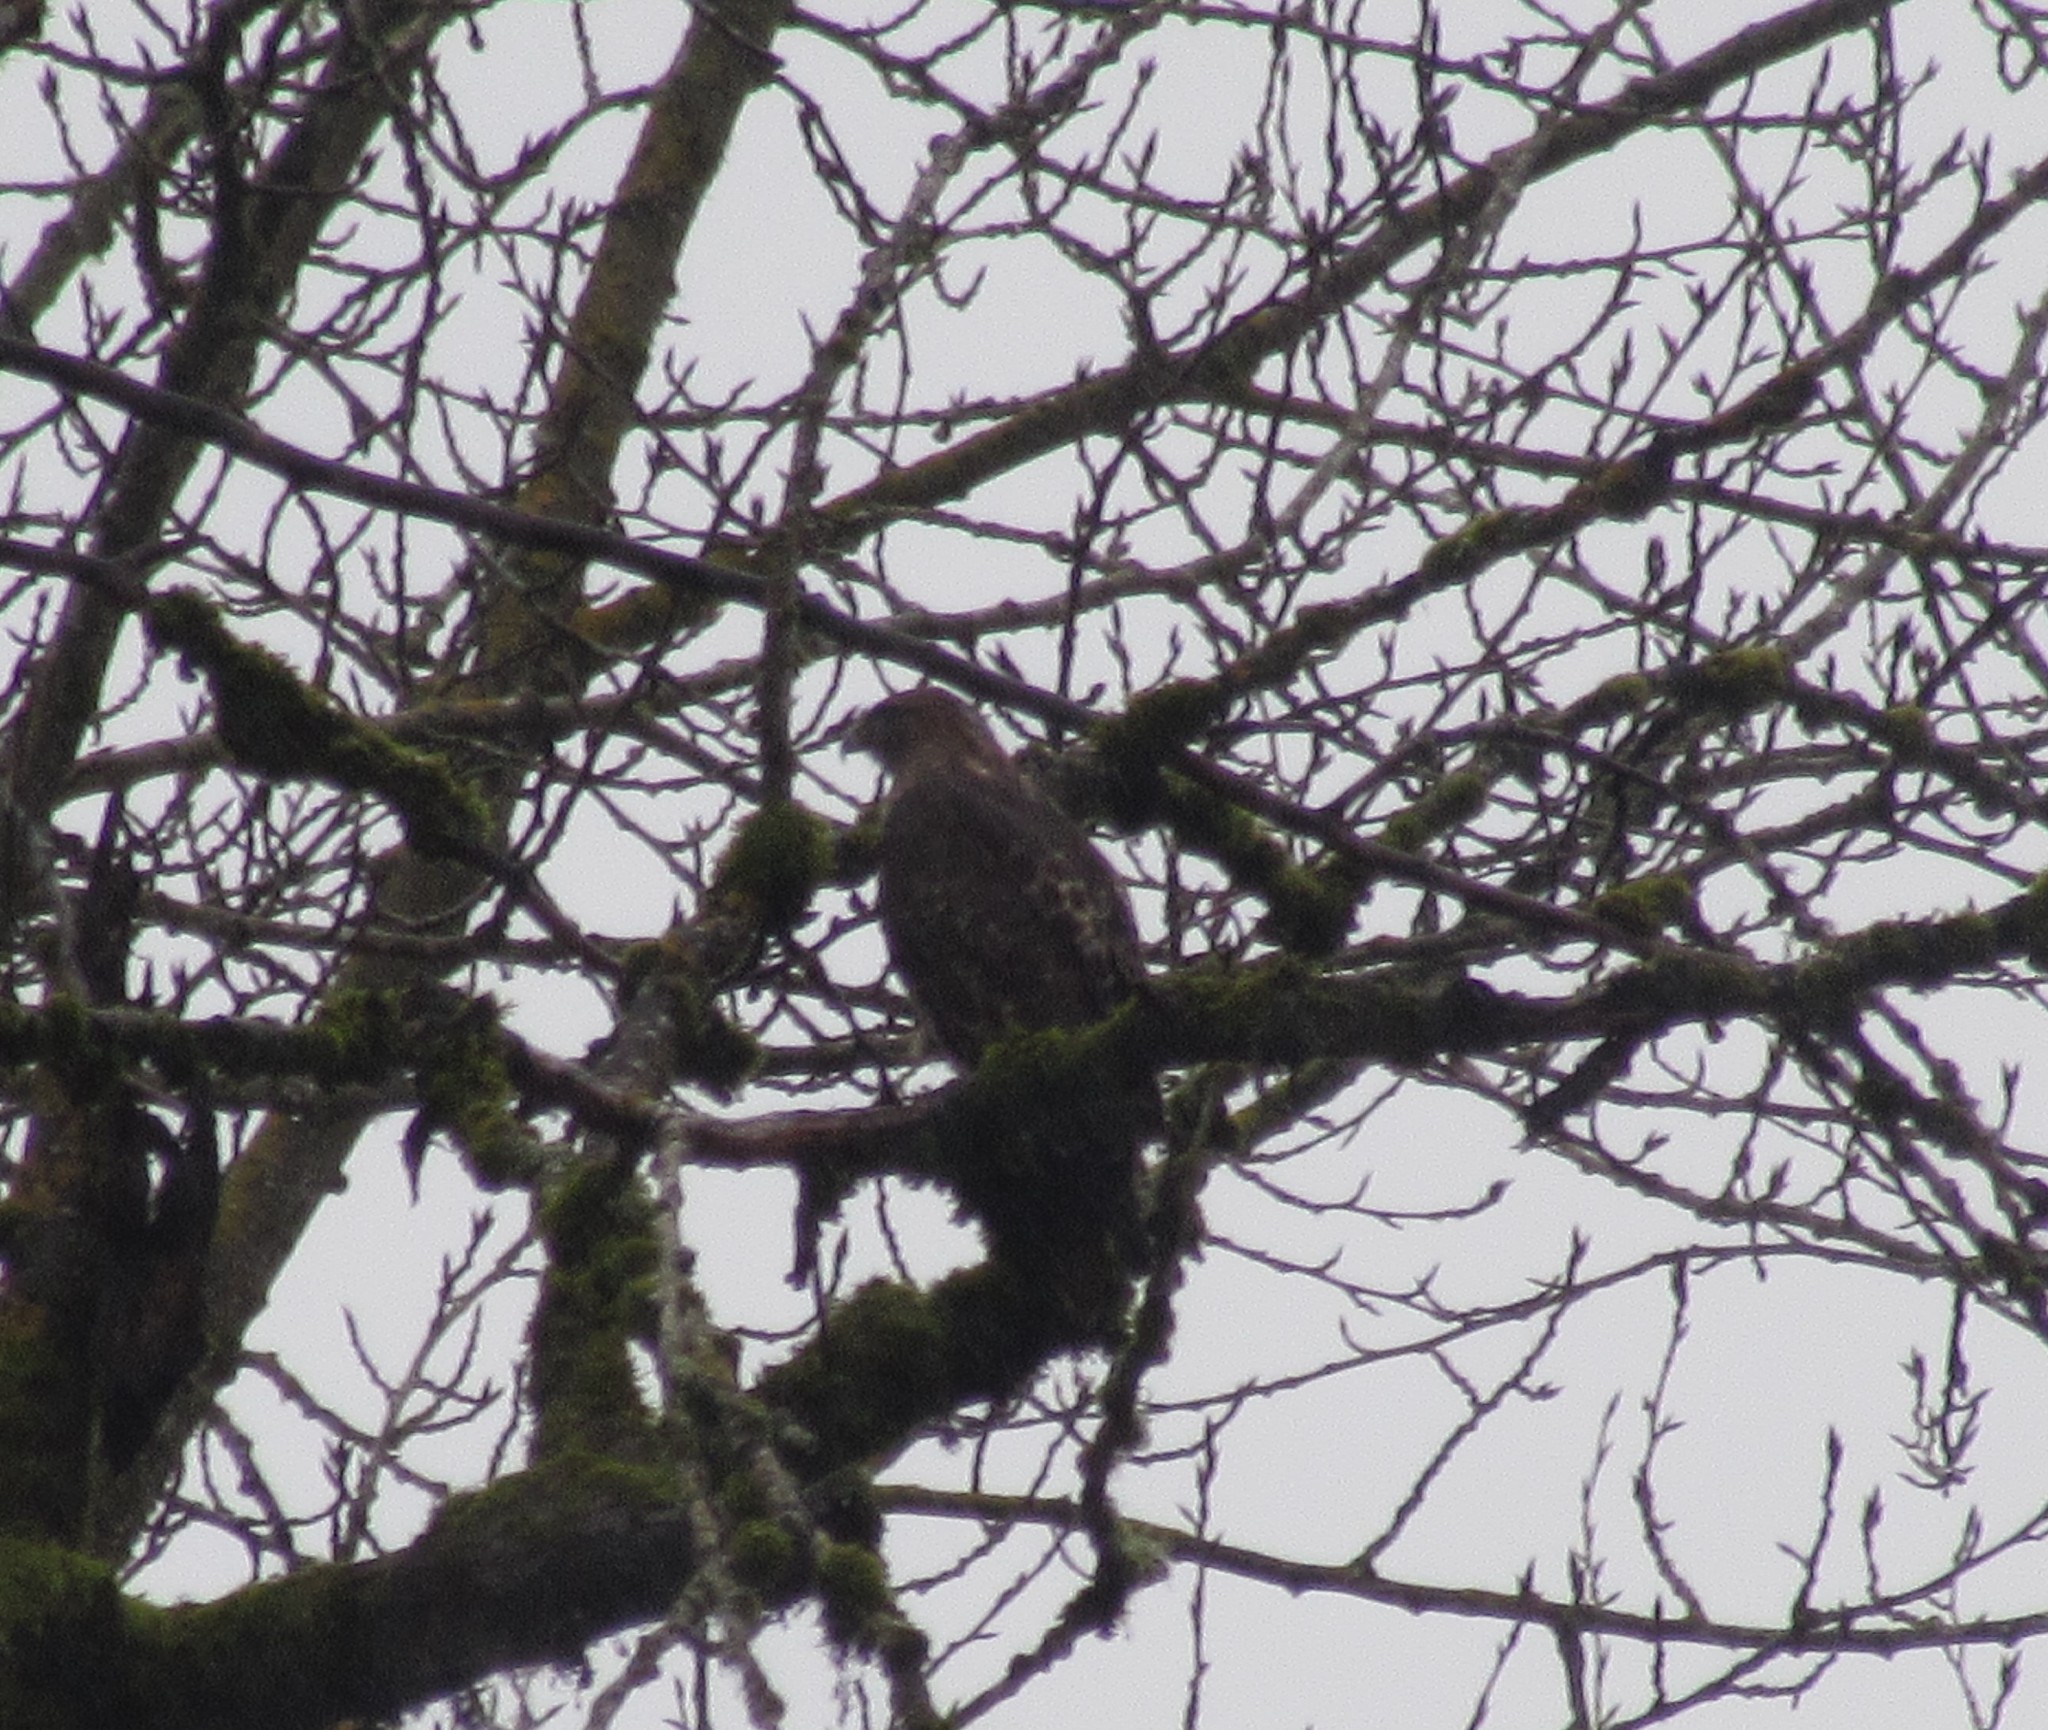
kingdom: Animalia
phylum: Chordata
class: Aves
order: Accipitriformes
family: Accipitridae
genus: Buteo
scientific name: Buteo jamaicensis
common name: Red-tailed hawk
